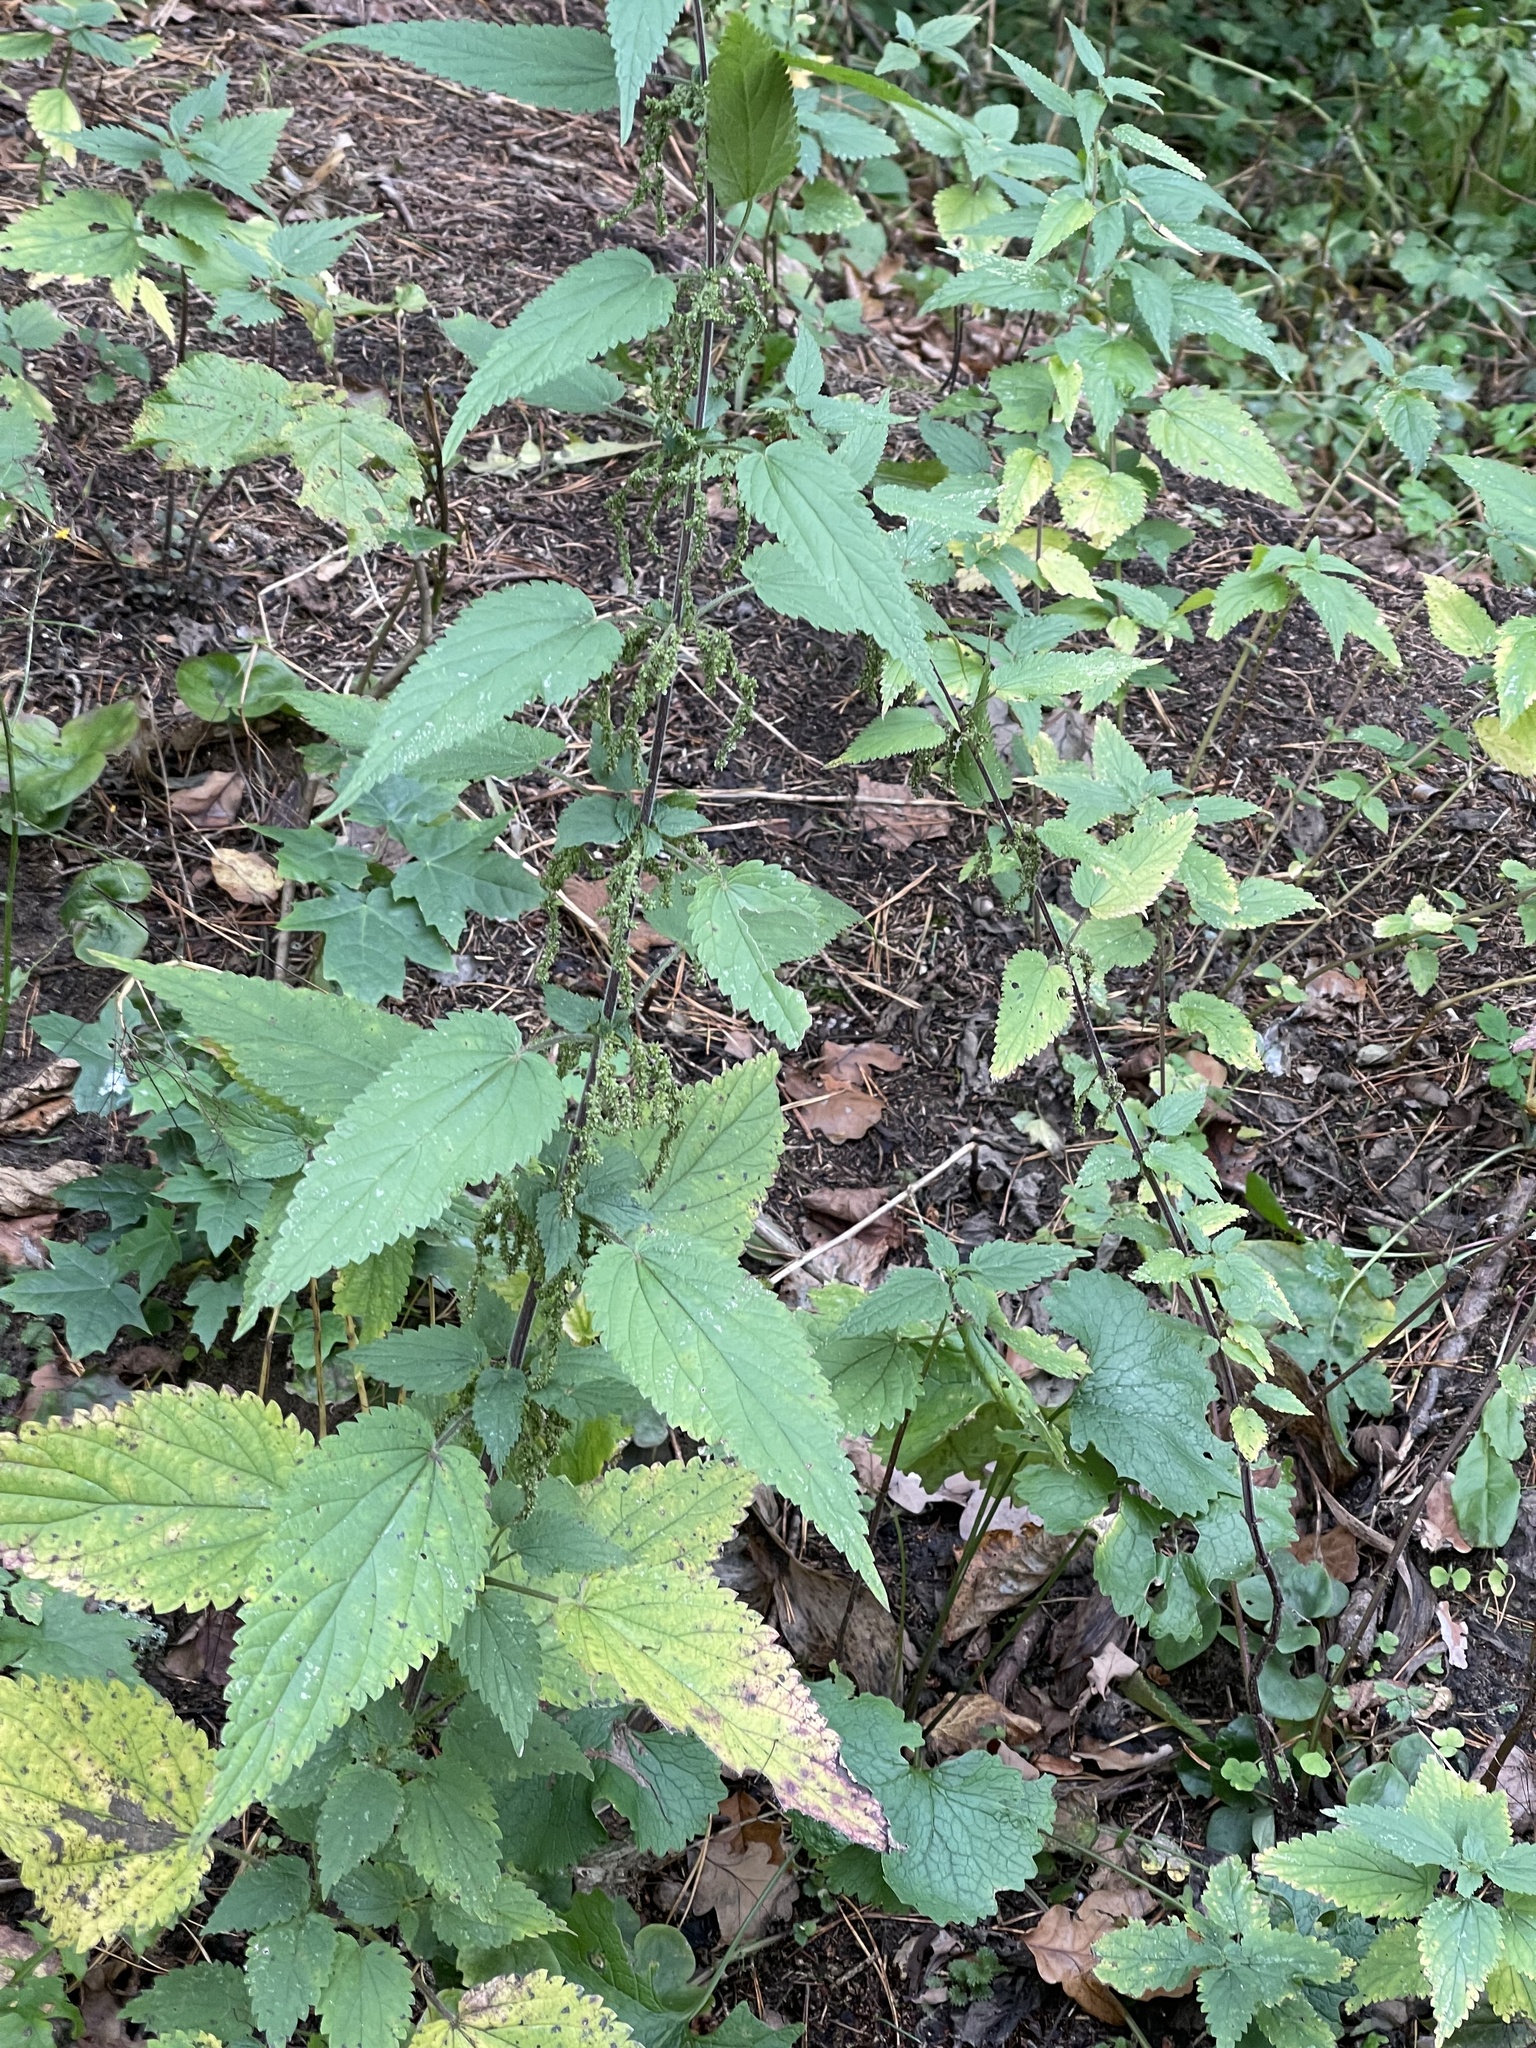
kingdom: Plantae
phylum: Tracheophyta
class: Magnoliopsida
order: Rosales
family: Urticaceae
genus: Urtica
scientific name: Urtica dioica
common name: Common nettle
